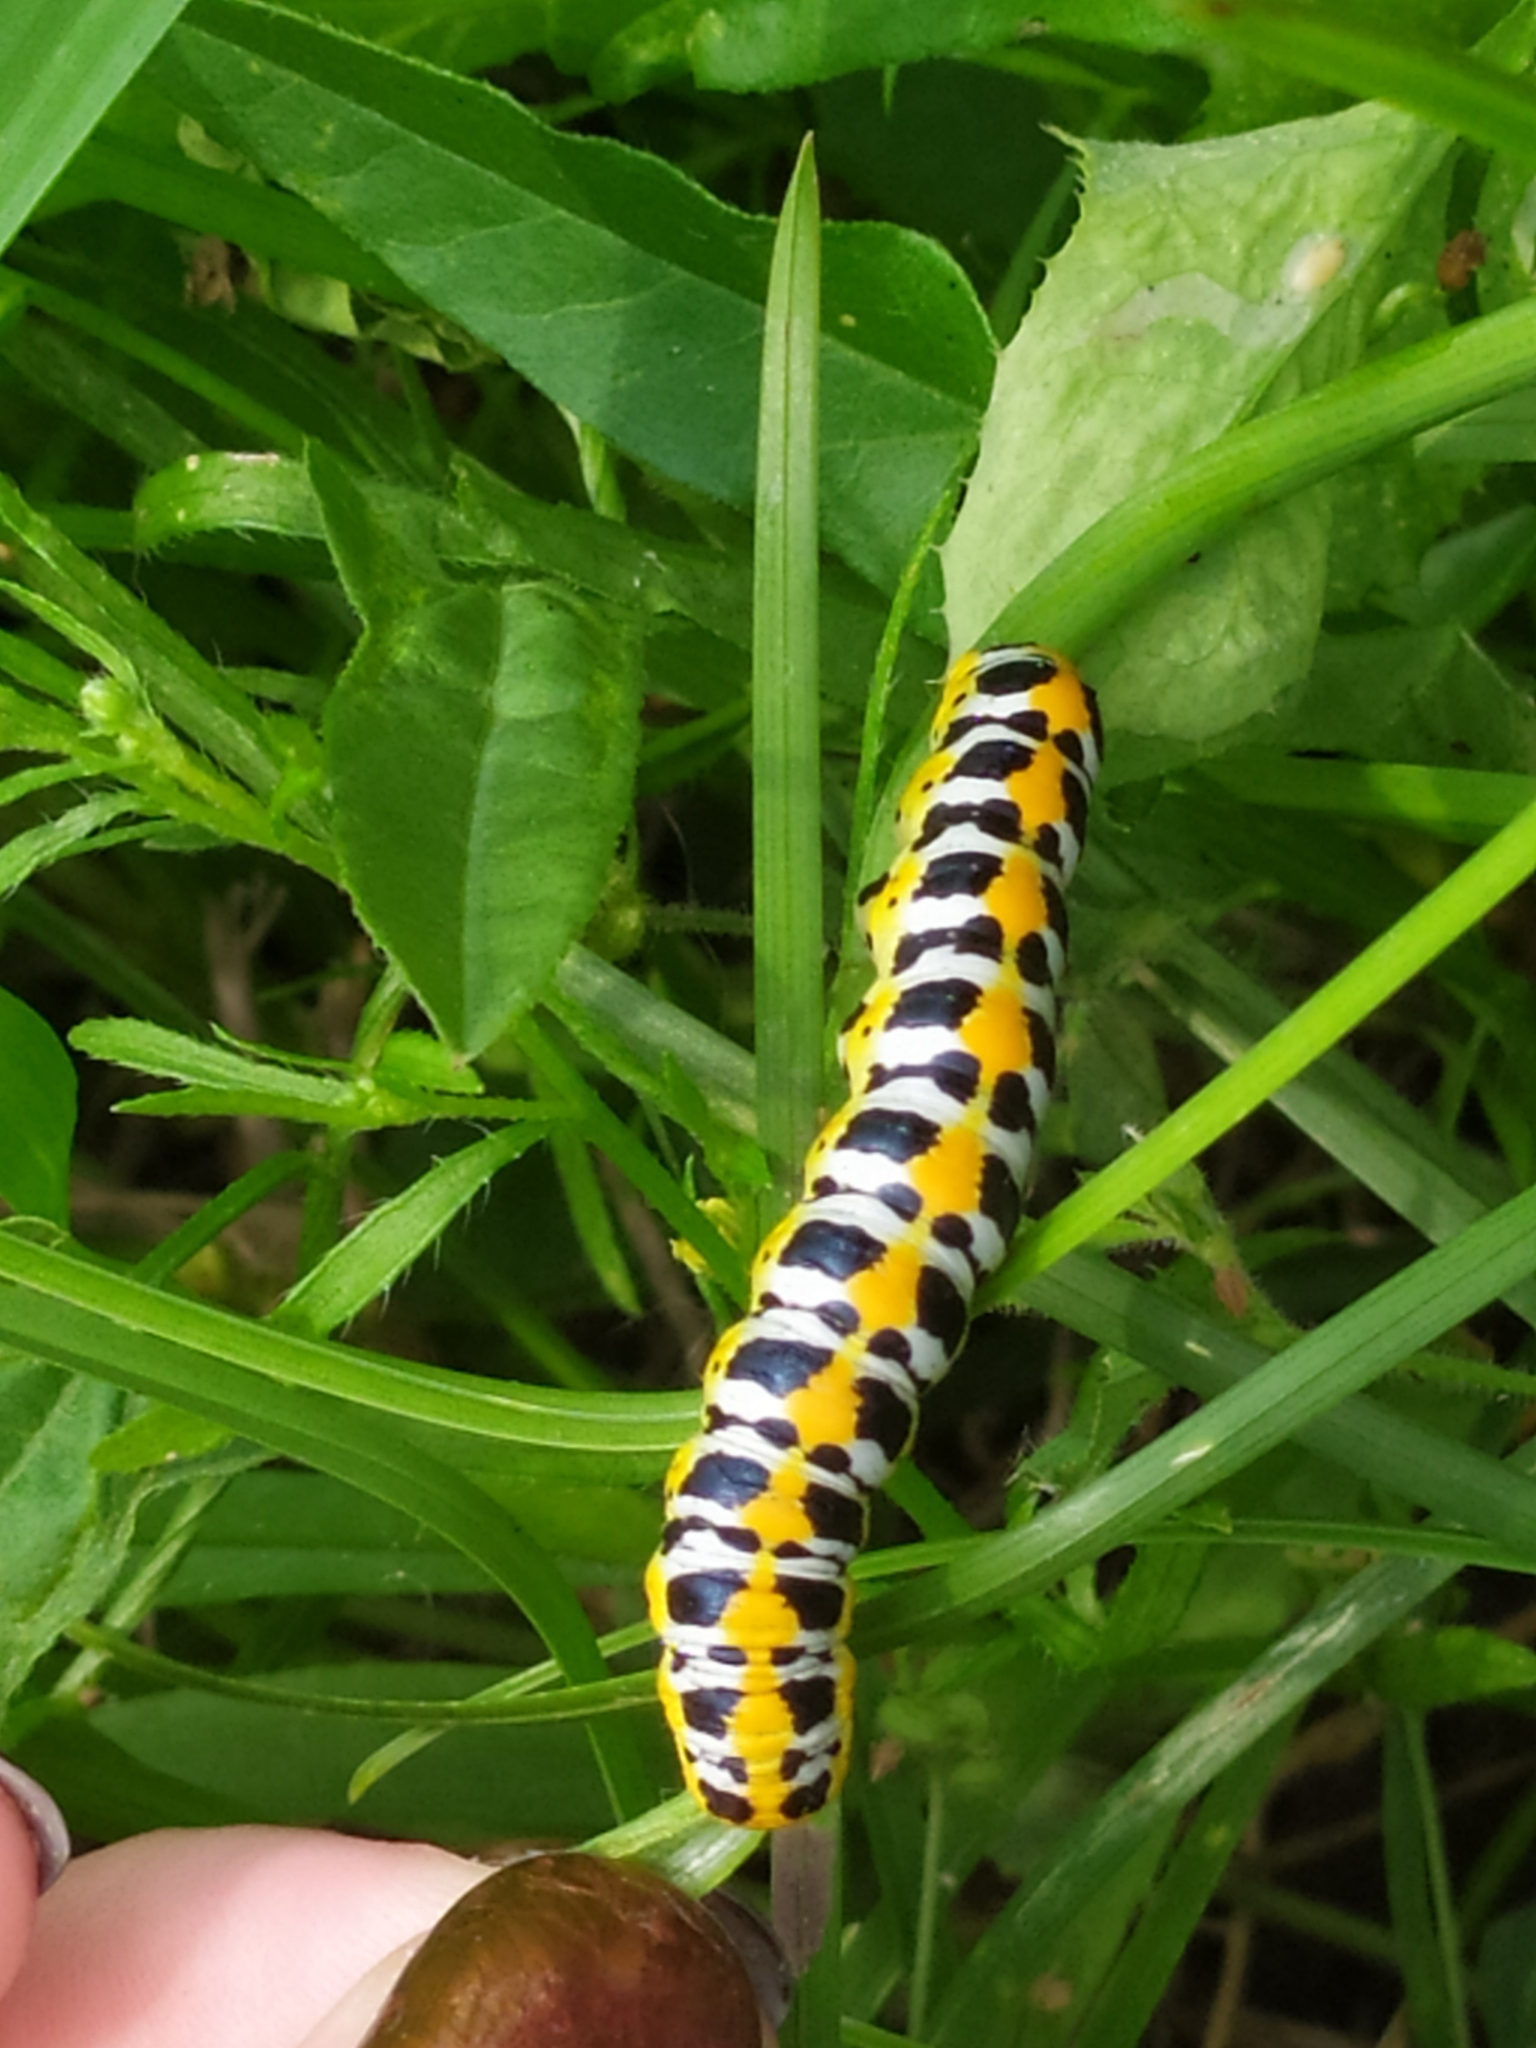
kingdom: Animalia
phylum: Arthropoda
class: Insecta
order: Lepidoptera
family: Noctuidae
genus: Cucullia
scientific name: Cucullia pustulata
